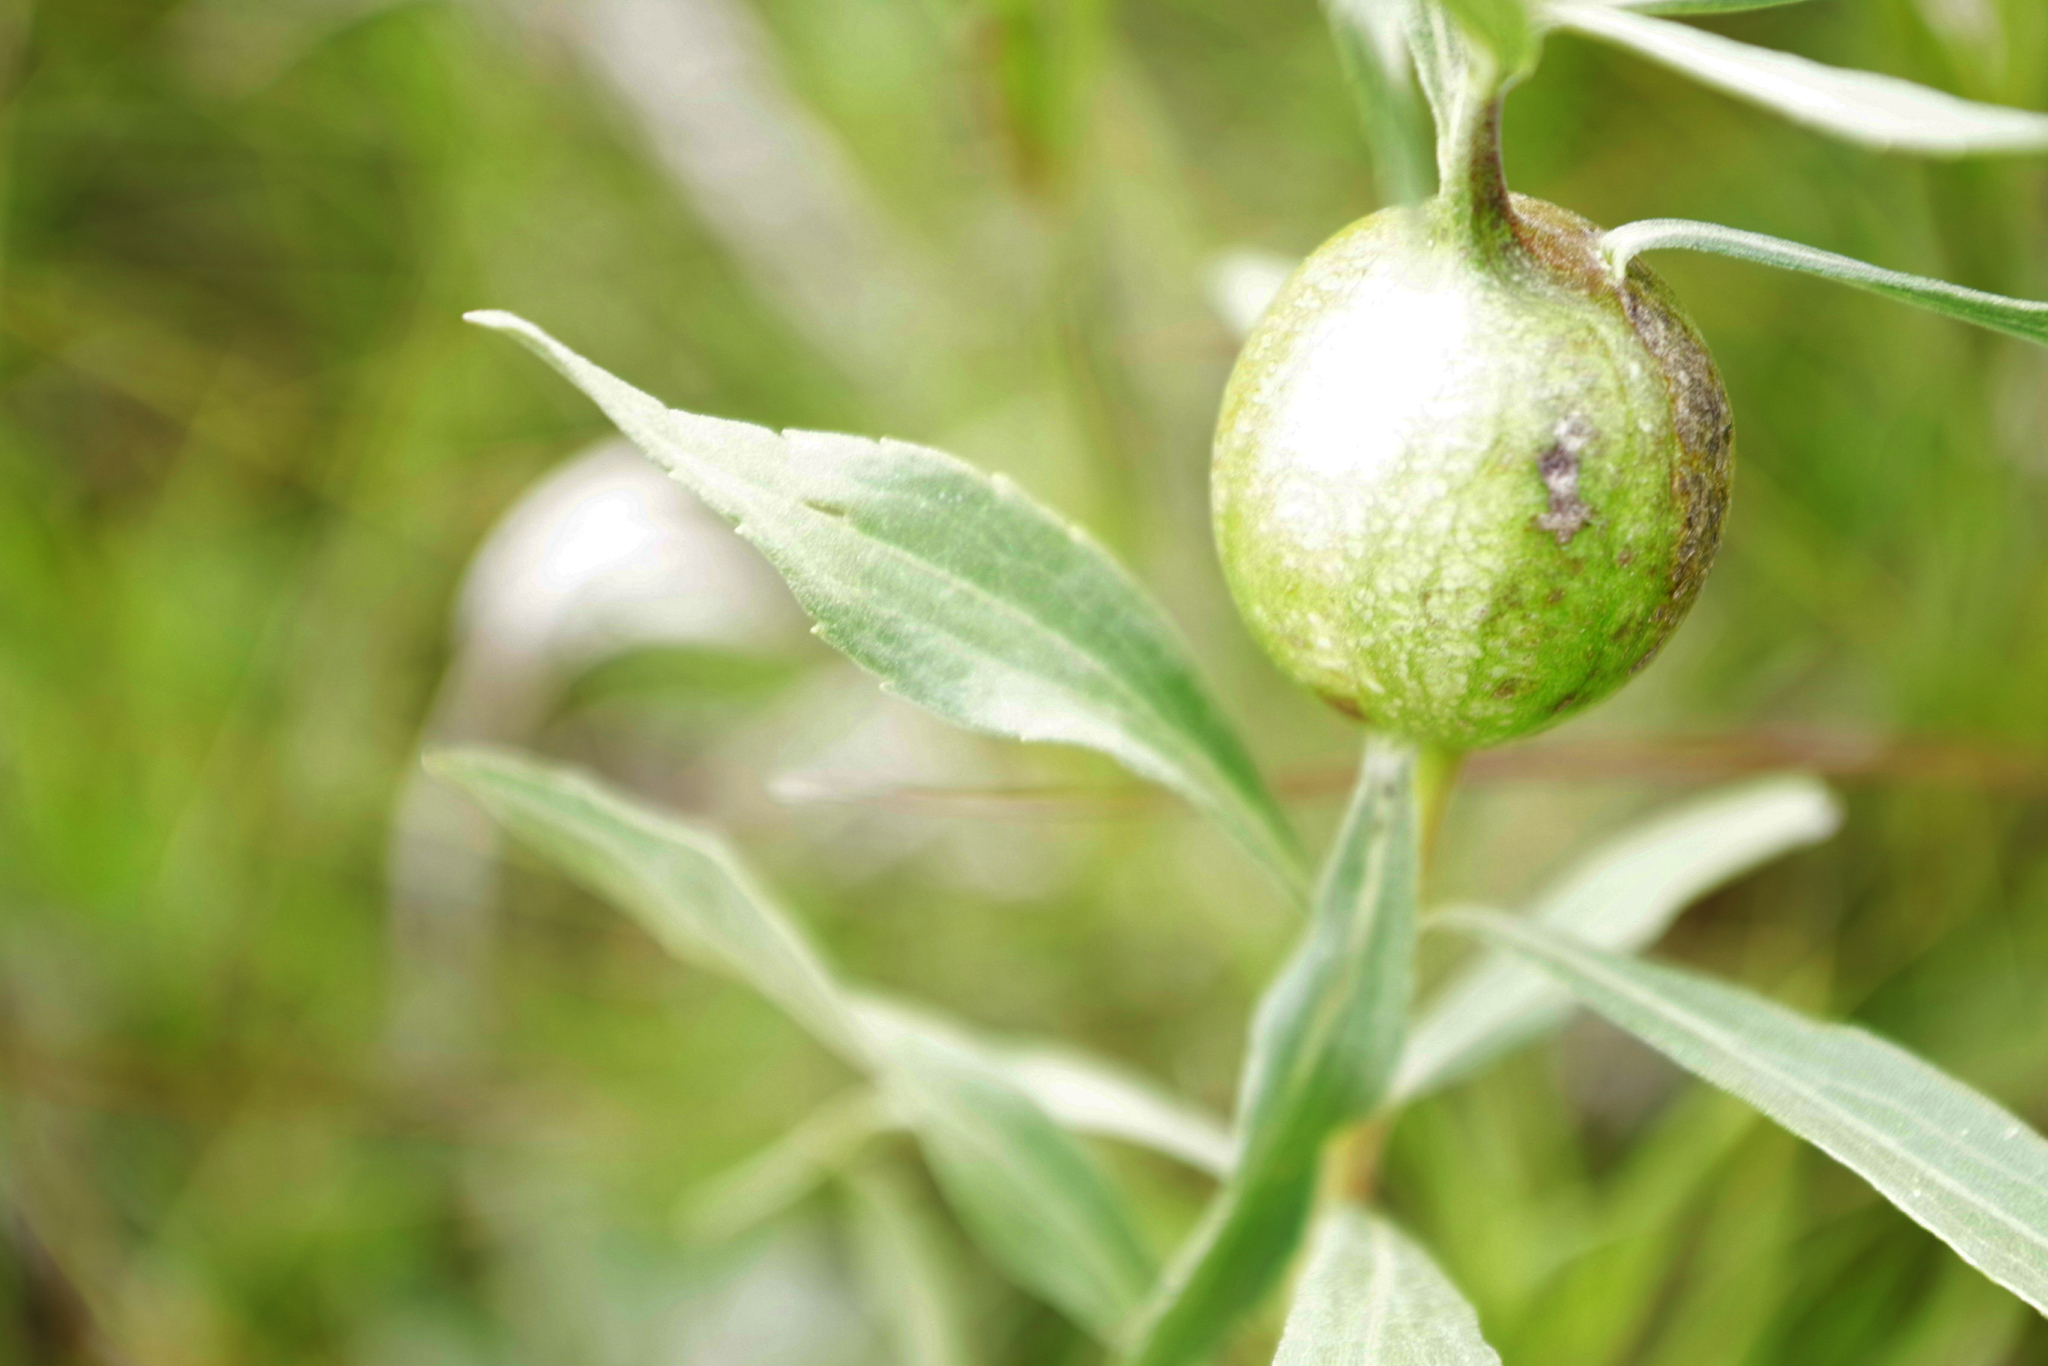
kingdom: Animalia
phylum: Arthropoda
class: Insecta
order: Diptera
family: Tephritidae
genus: Eurosta
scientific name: Eurosta solidaginis
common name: Goldenrod gall fly
